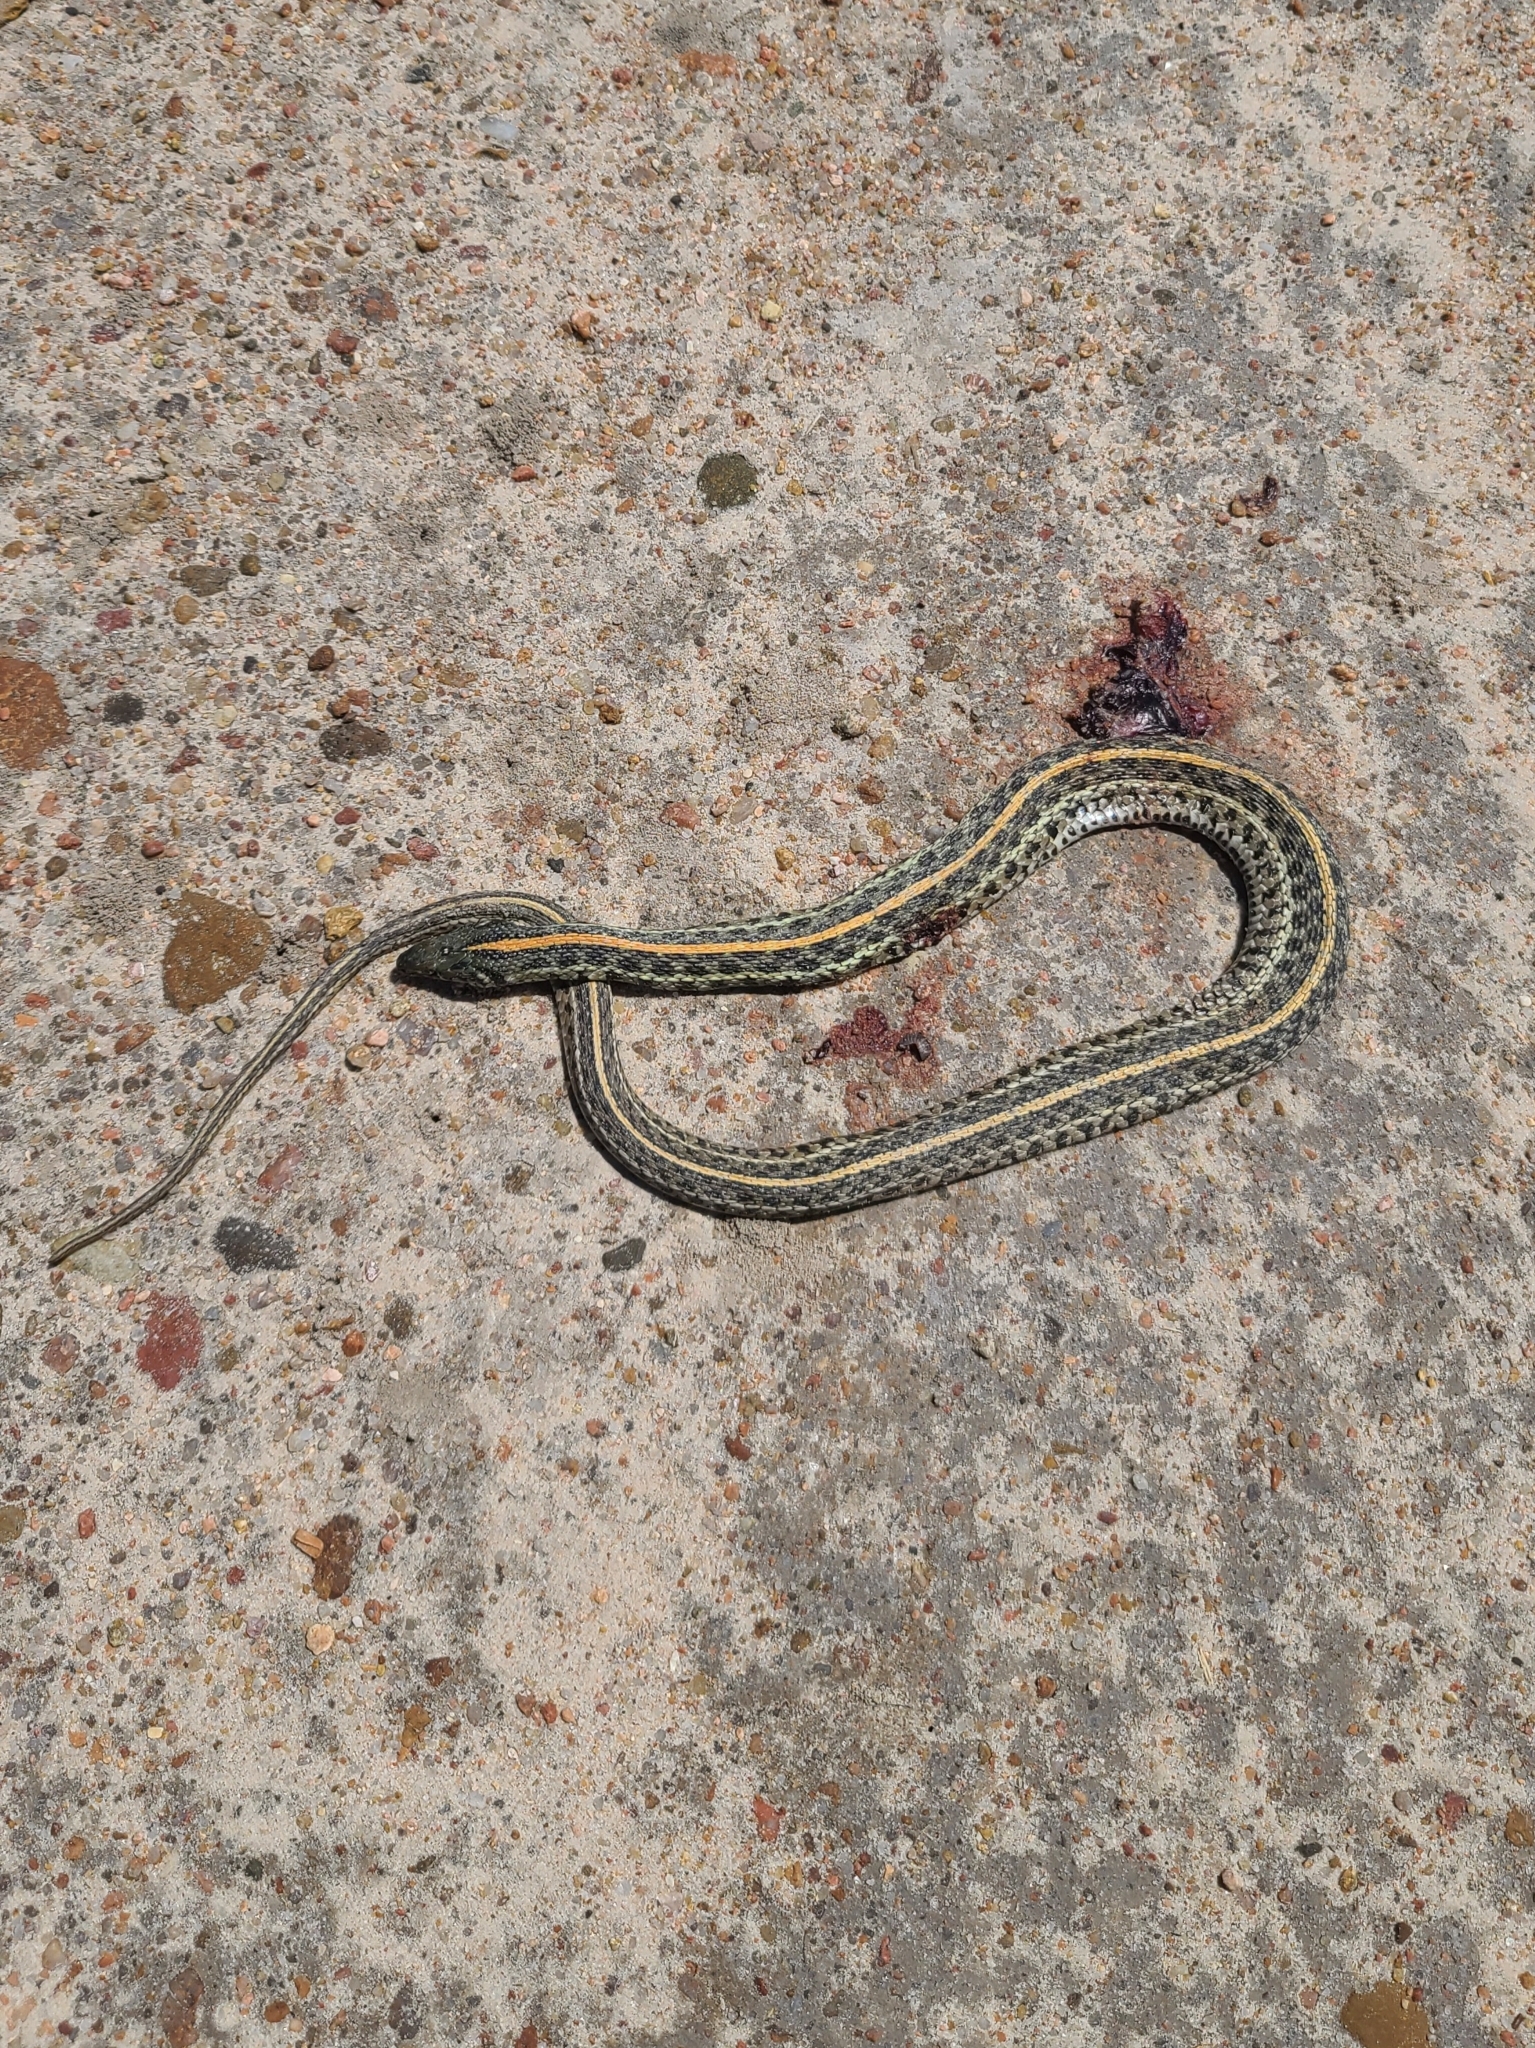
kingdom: Animalia
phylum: Chordata
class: Squamata
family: Colubridae
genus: Thamnophis
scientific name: Thamnophis radix
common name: Plains garter snake
